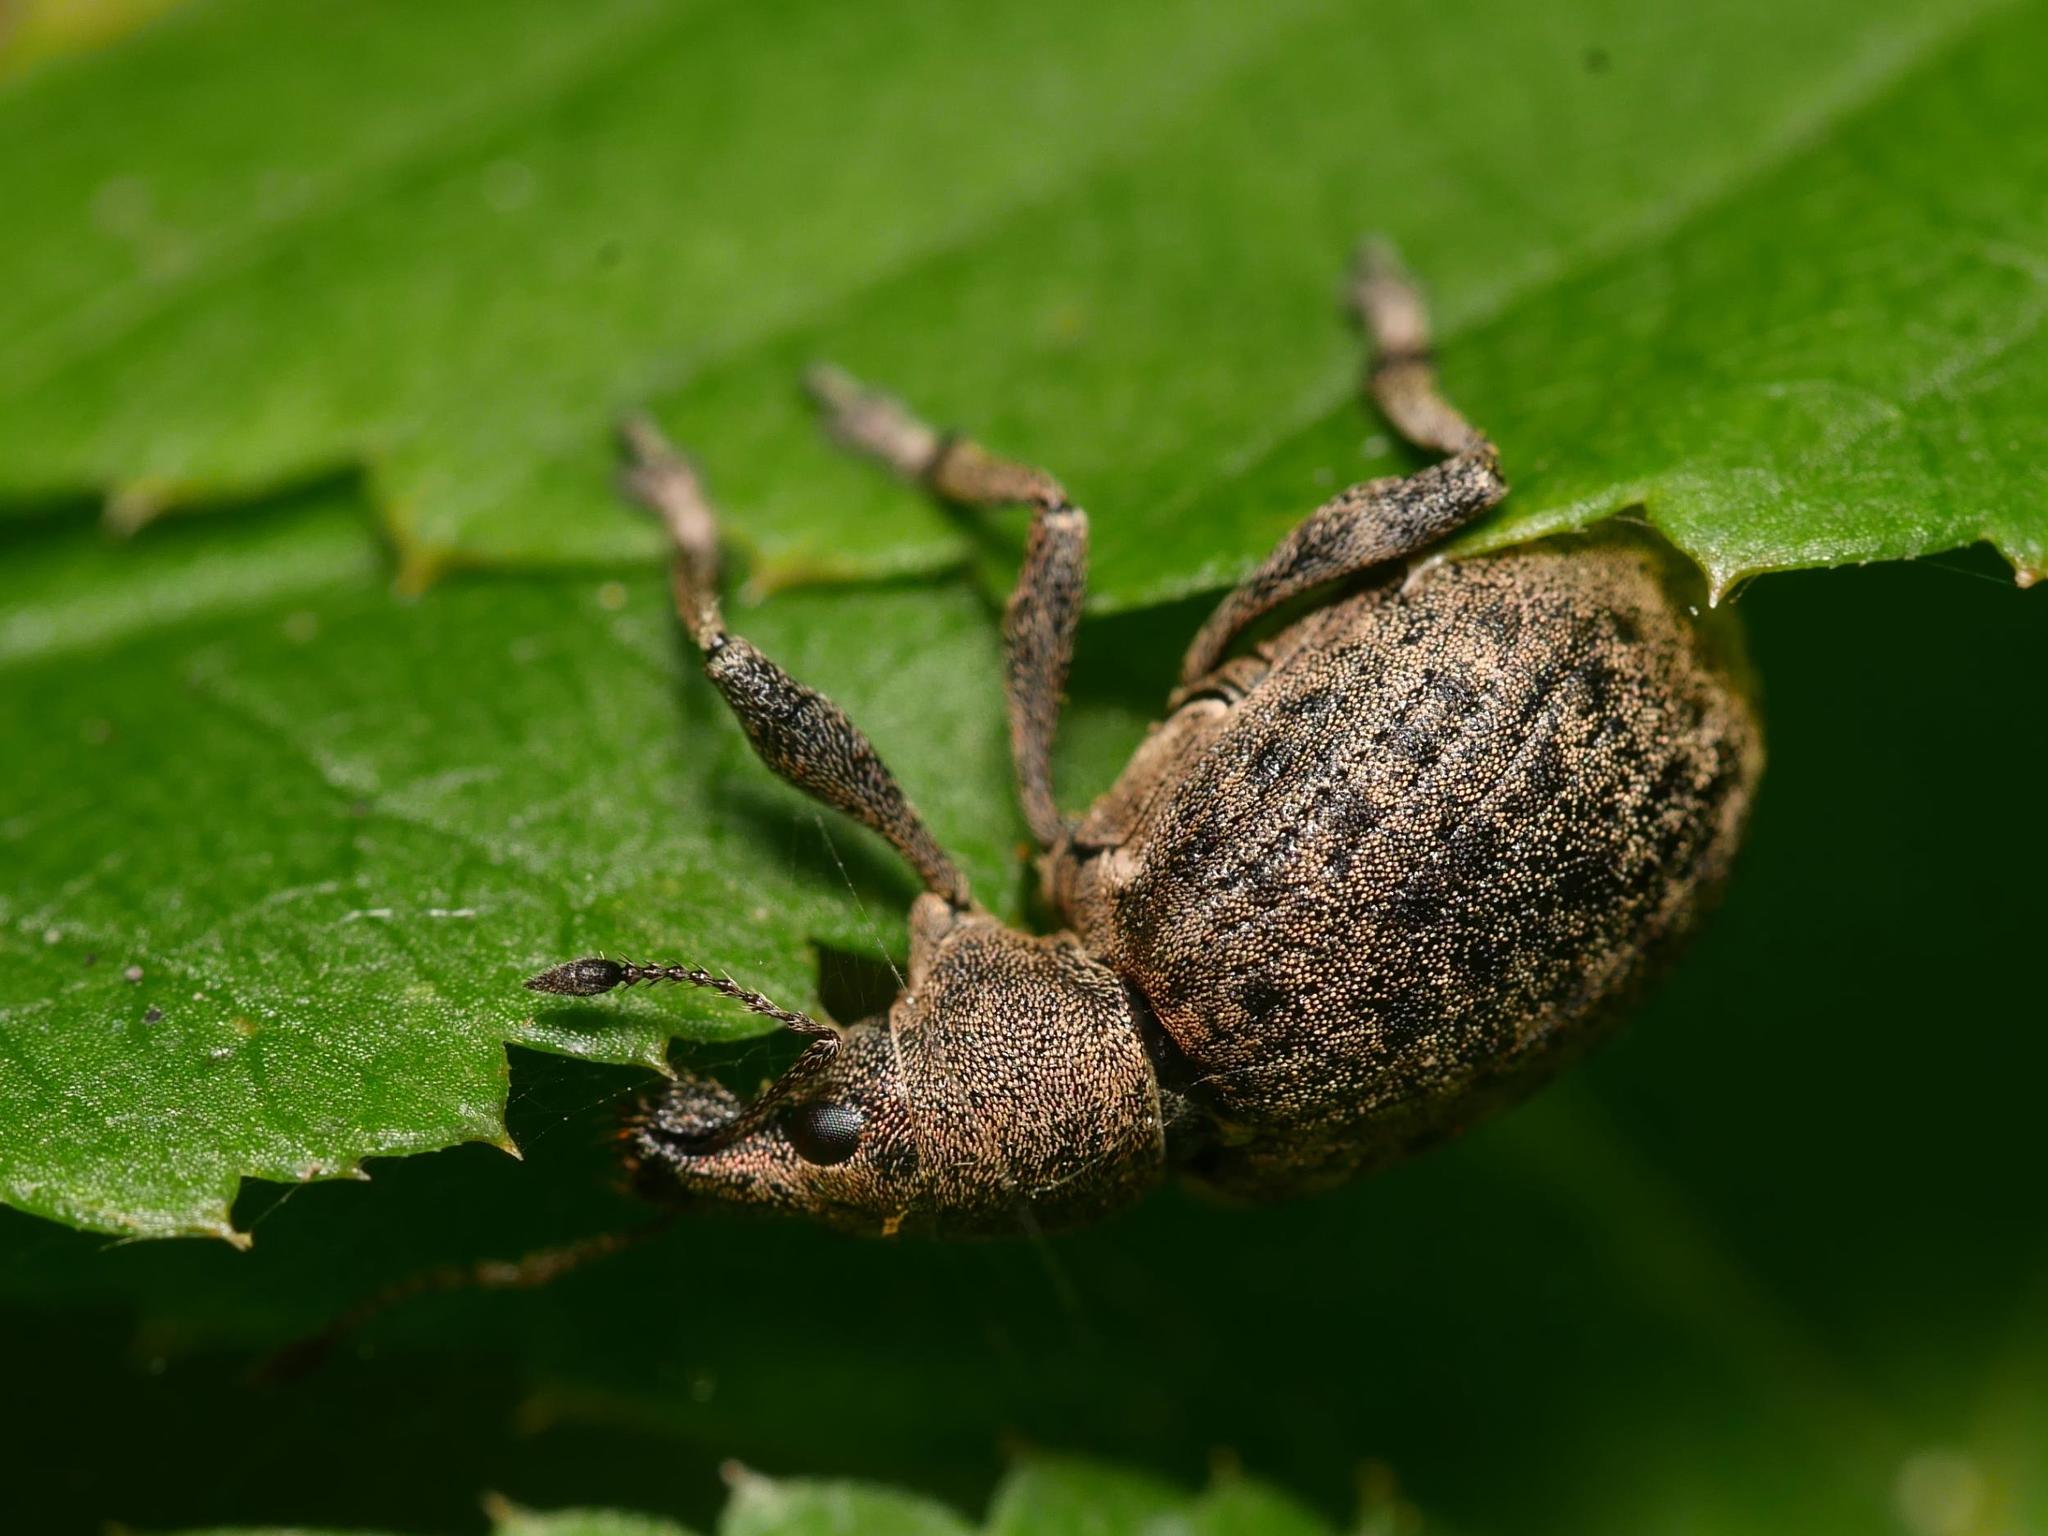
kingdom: Animalia
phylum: Arthropoda
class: Insecta
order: Coleoptera
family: Curculionidae
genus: Liophloeus
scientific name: Liophloeus tessulatus
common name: Weevil
